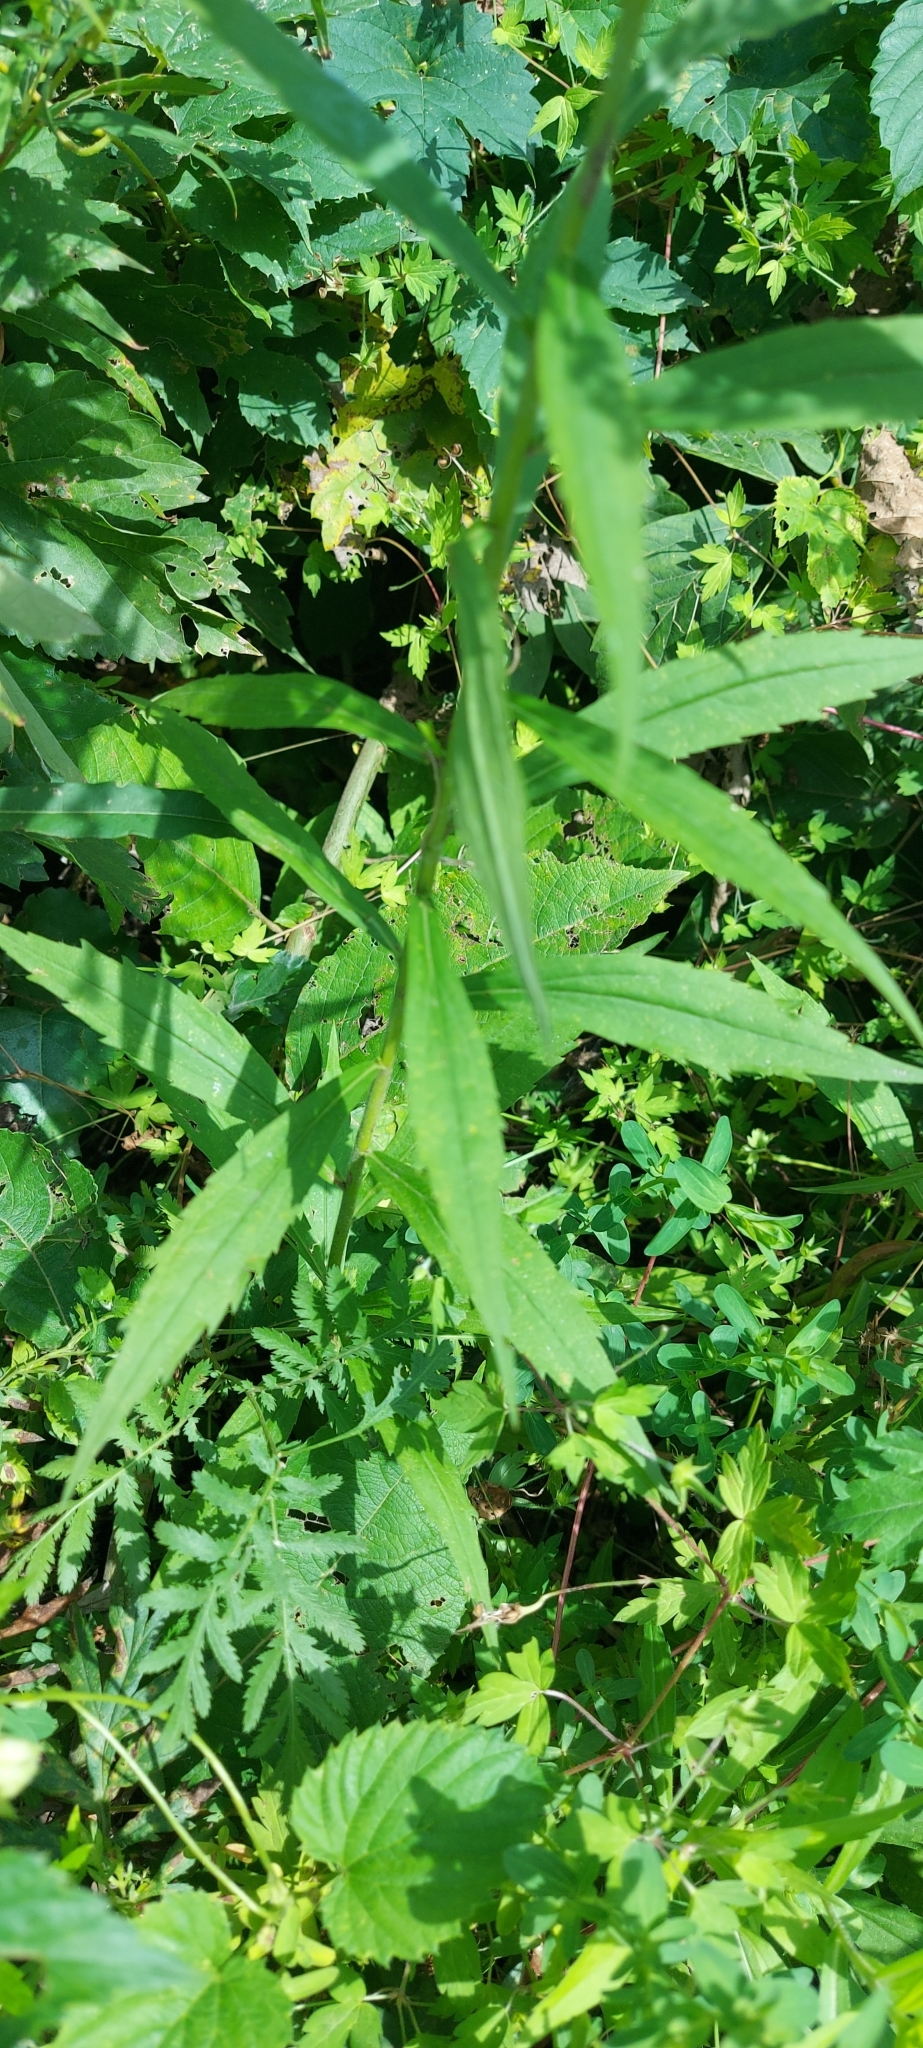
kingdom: Plantae
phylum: Tracheophyta
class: Magnoliopsida
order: Asterales
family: Asteraceae
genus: Solidago
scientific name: Solidago canadensis
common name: Canada goldenrod
